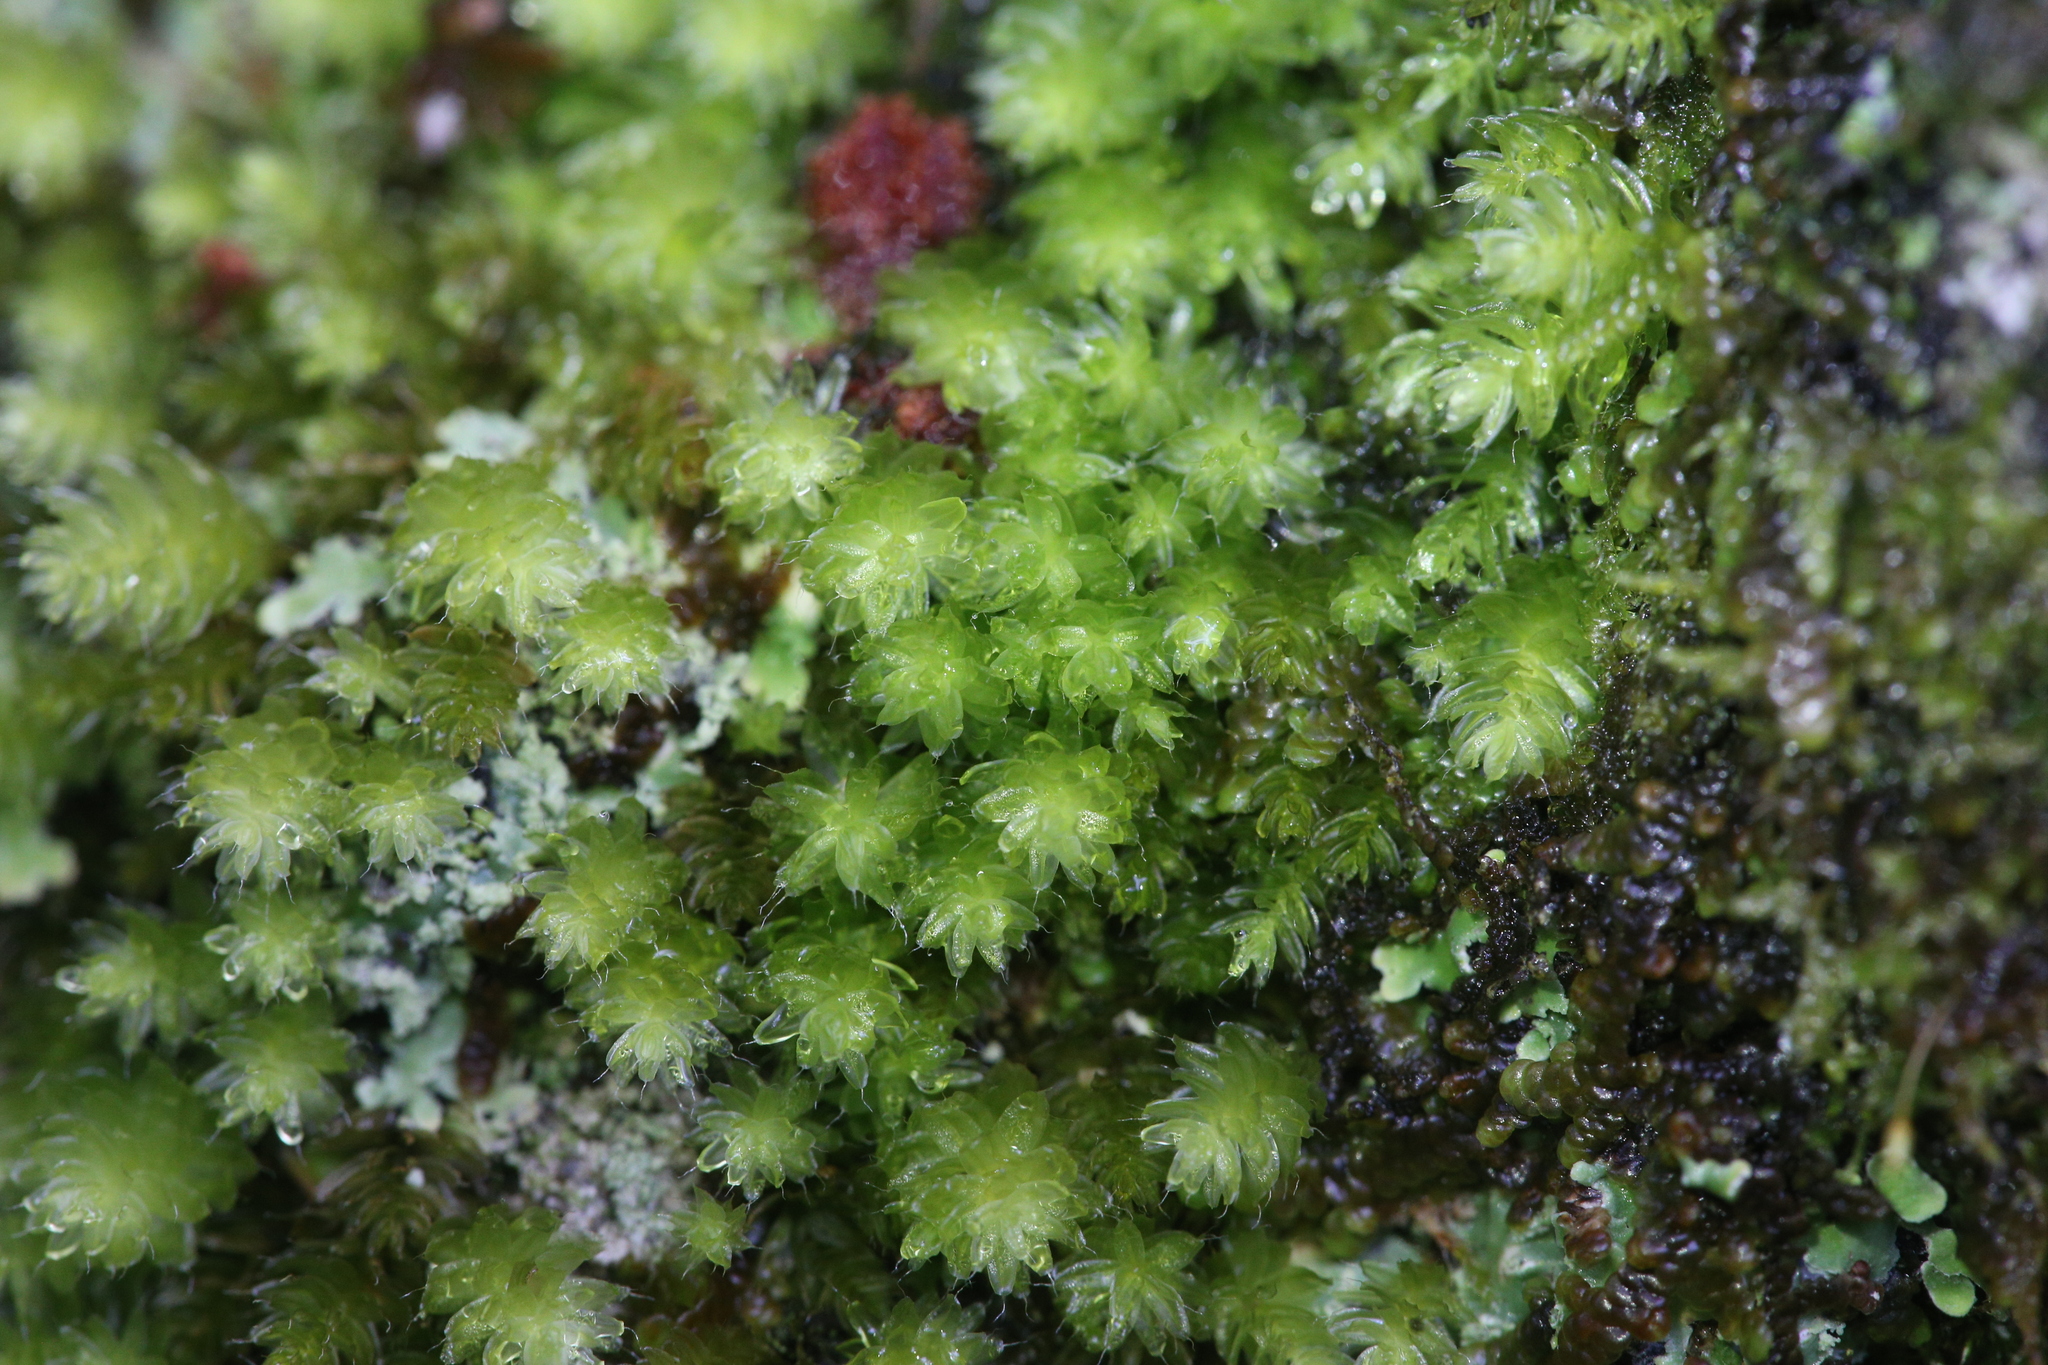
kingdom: Plantae
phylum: Bryophyta
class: Bryopsida
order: Bryales
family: Leptostomataceae
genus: Leptostomum
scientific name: Leptostomum inclinans
